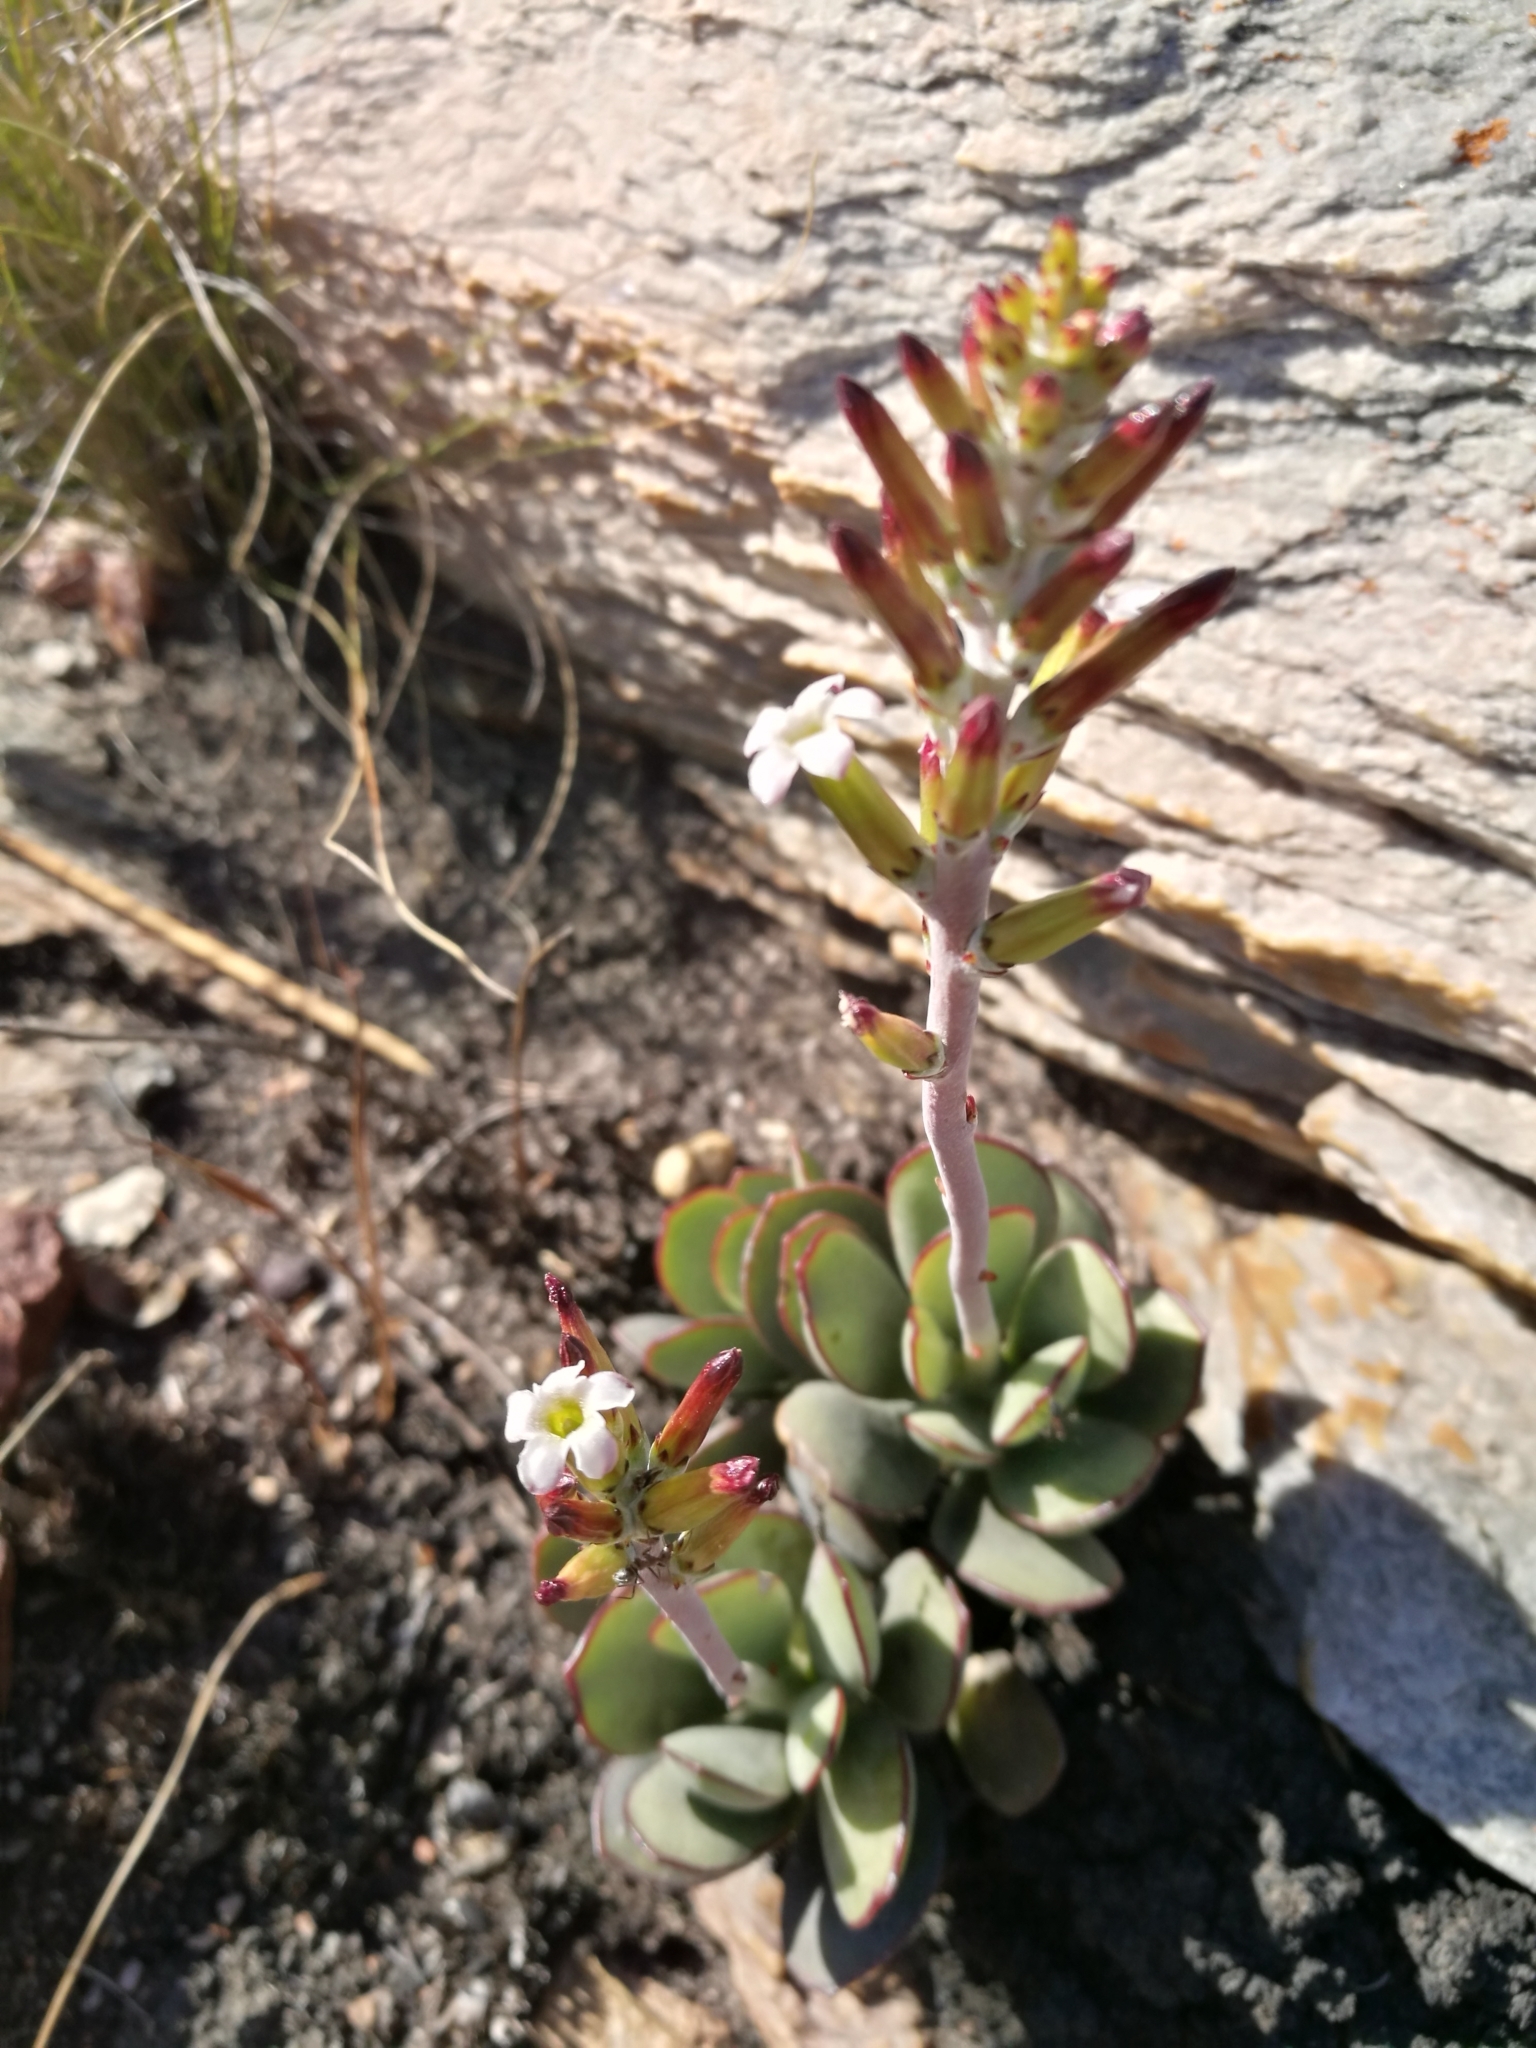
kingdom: Plantae
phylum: Tracheophyta
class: Magnoliopsida
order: Saxifragales
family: Crassulaceae
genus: Adromischus
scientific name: Adromischus sphenophyllus
